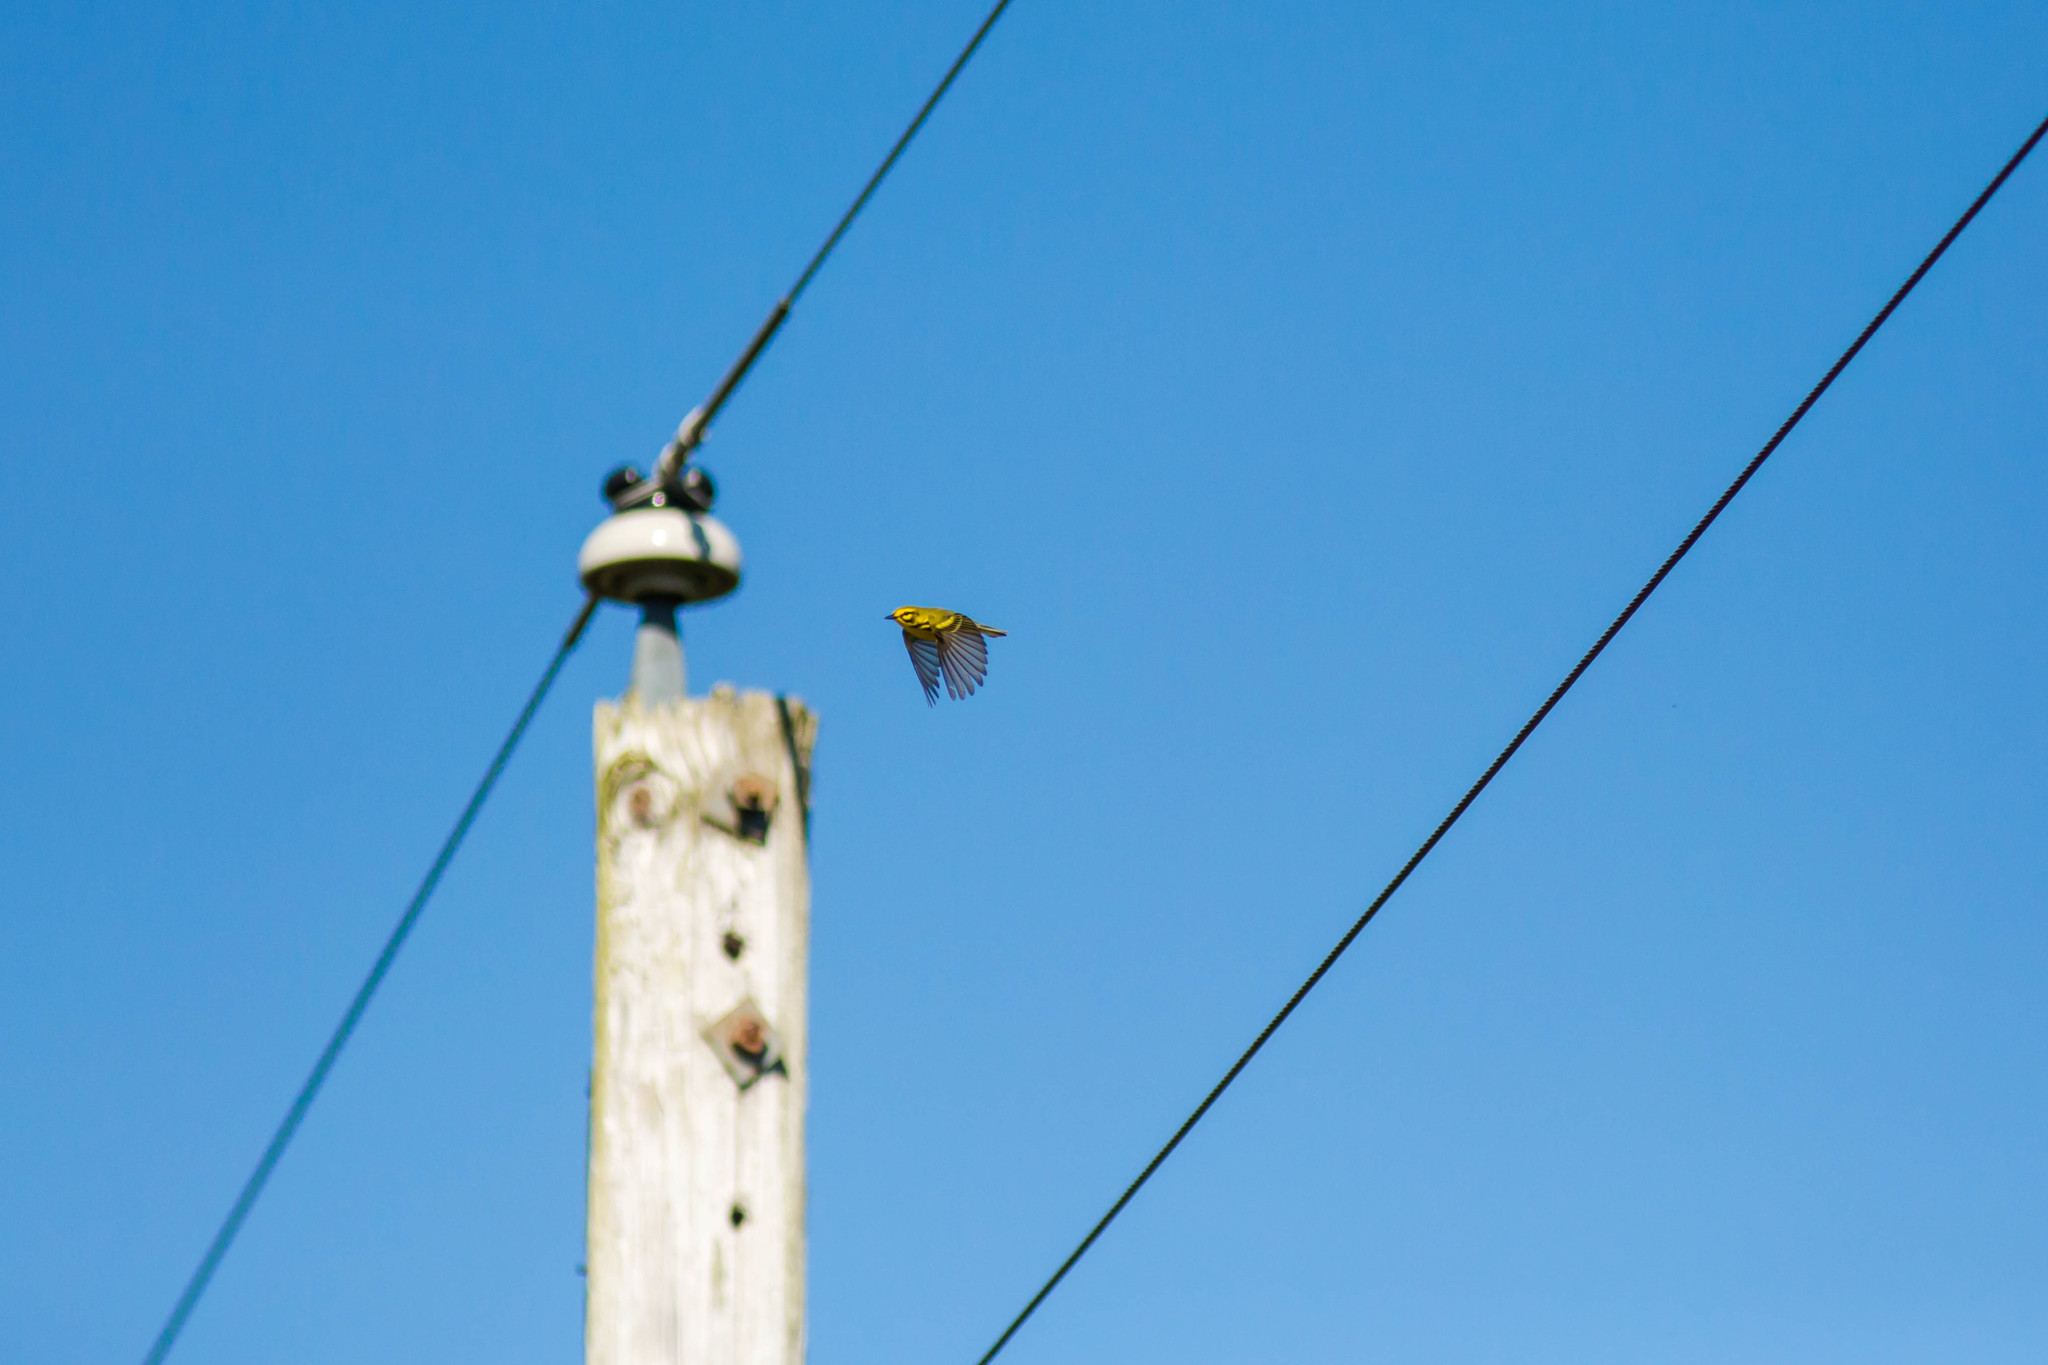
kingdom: Animalia
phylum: Chordata
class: Aves
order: Passeriformes
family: Parulidae
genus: Setophaga
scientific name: Setophaga discolor
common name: Prairie warbler
